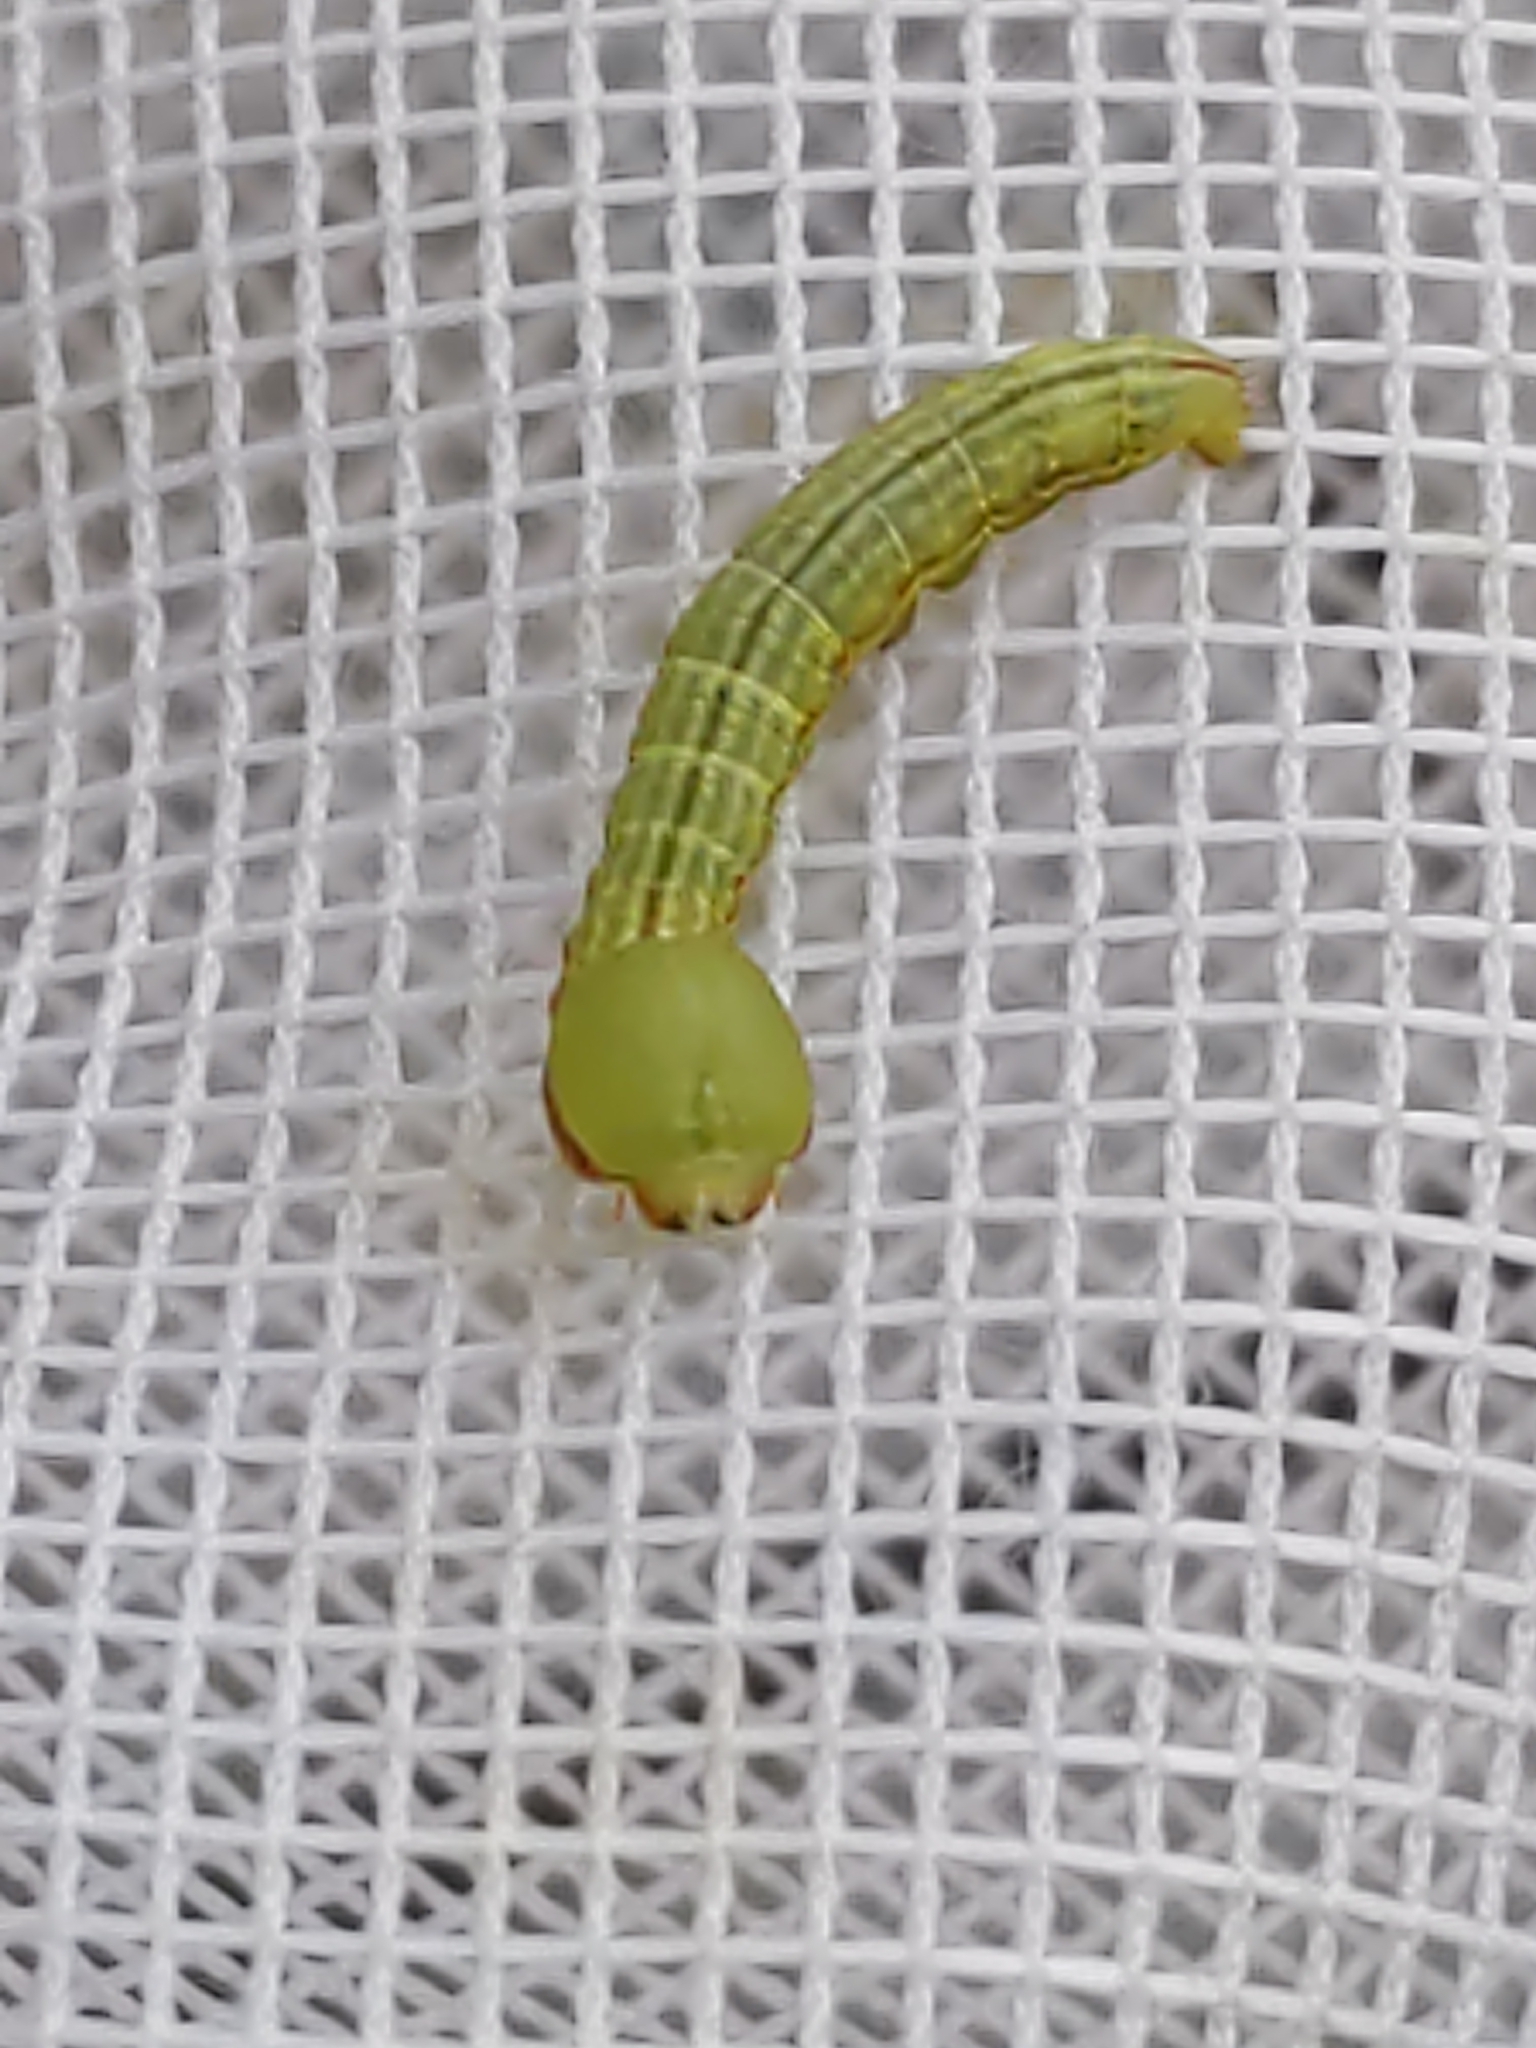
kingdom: Animalia
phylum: Arthropoda
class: Insecta
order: Lepidoptera
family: Notodontidae
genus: Peridea
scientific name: Peridea angulosa
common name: Angulose prominent
